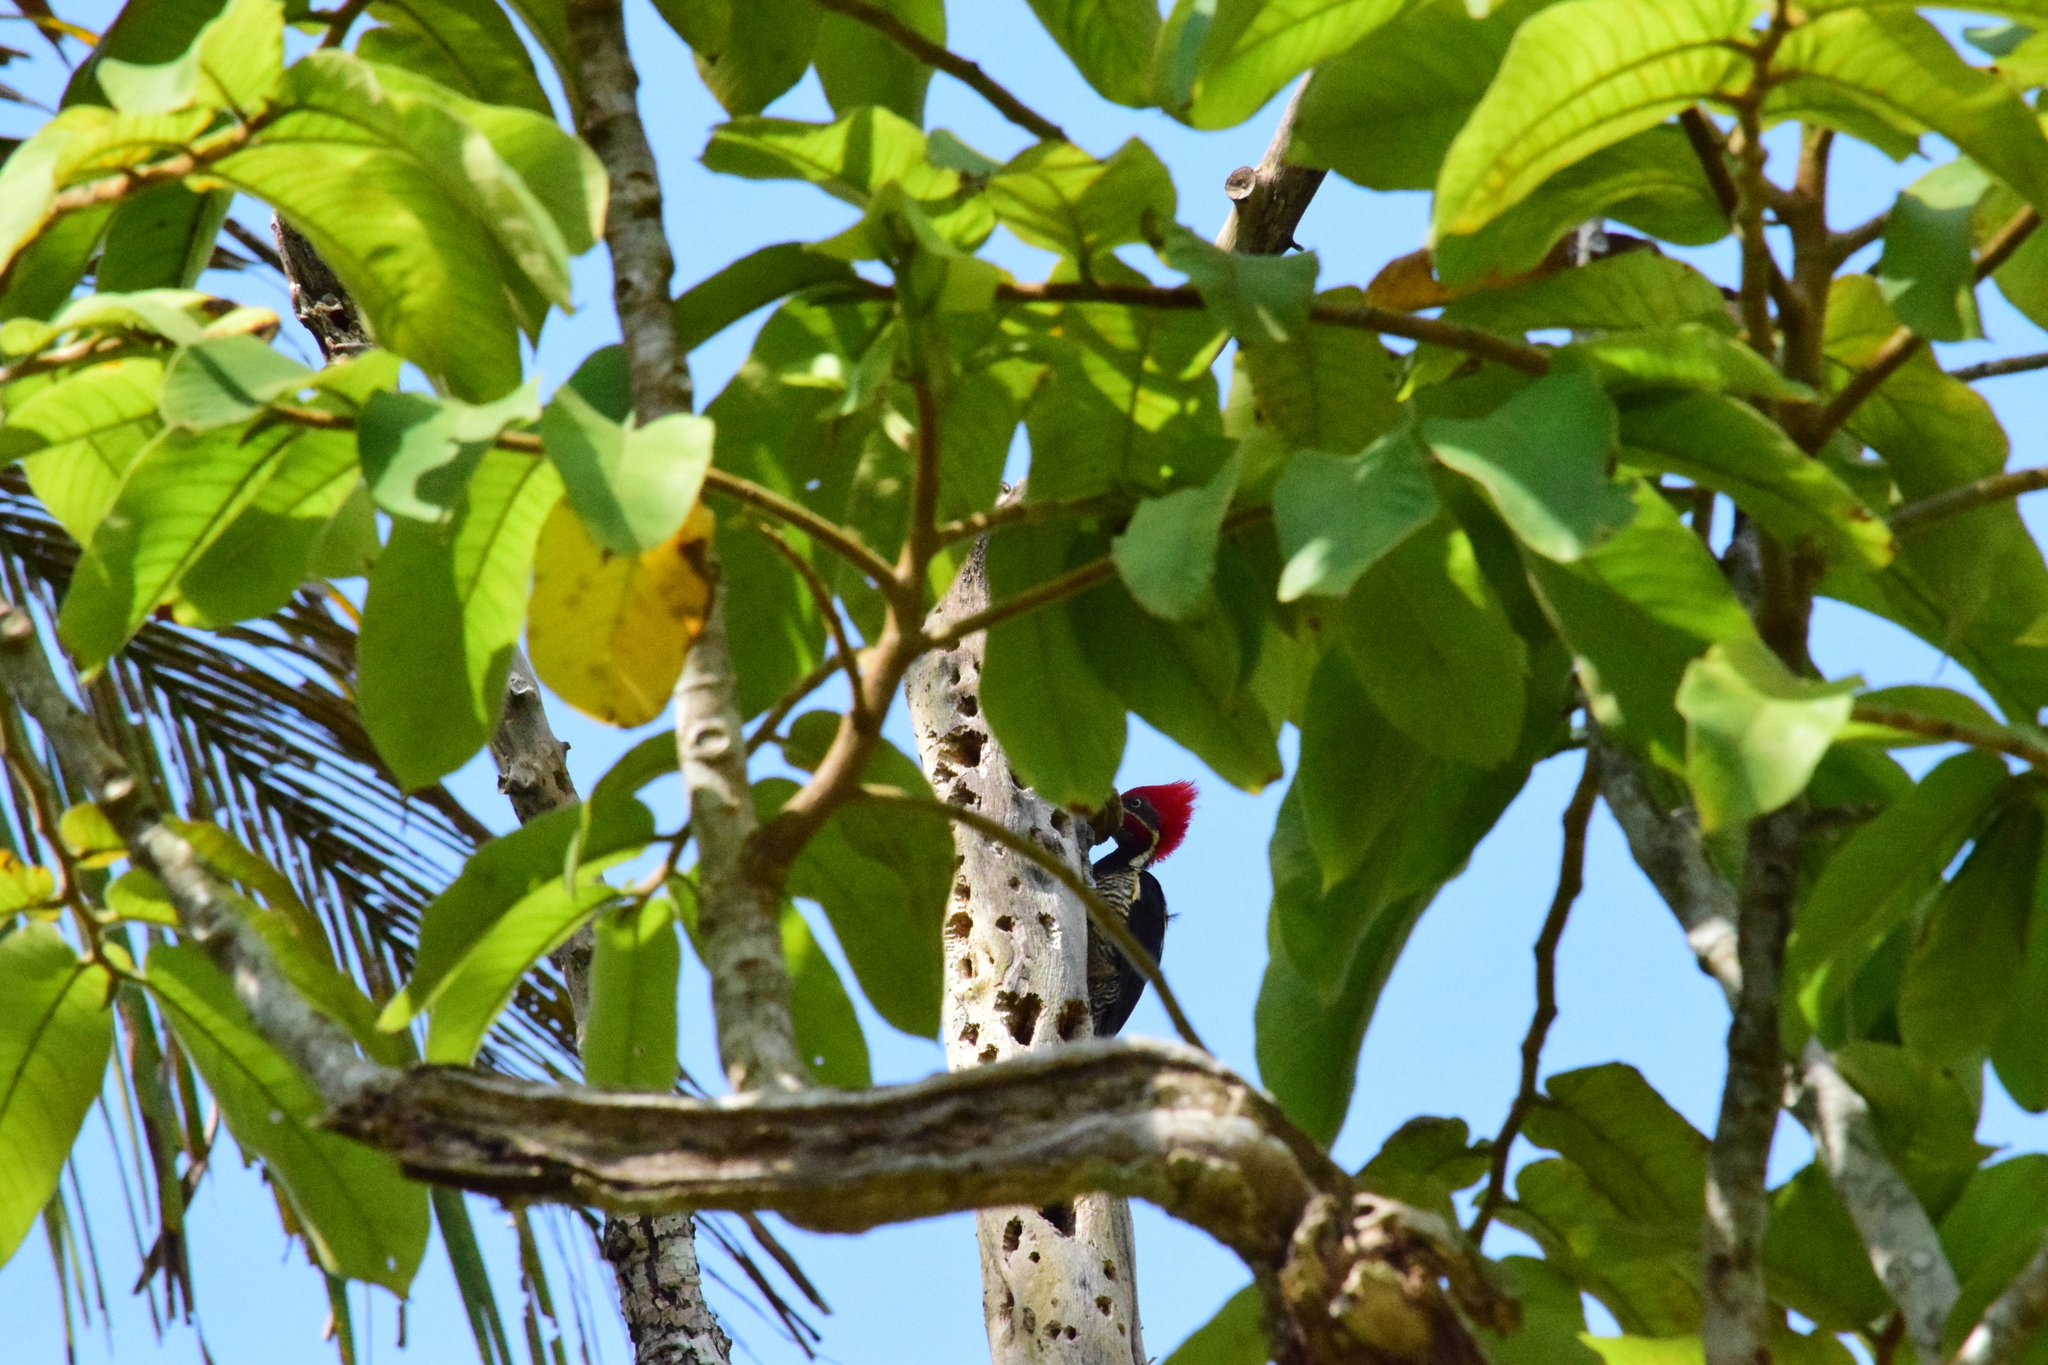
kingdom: Animalia
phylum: Chordata
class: Aves
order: Piciformes
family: Picidae
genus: Dryocopus
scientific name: Dryocopus lineatus
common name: Lineated woodpecker
